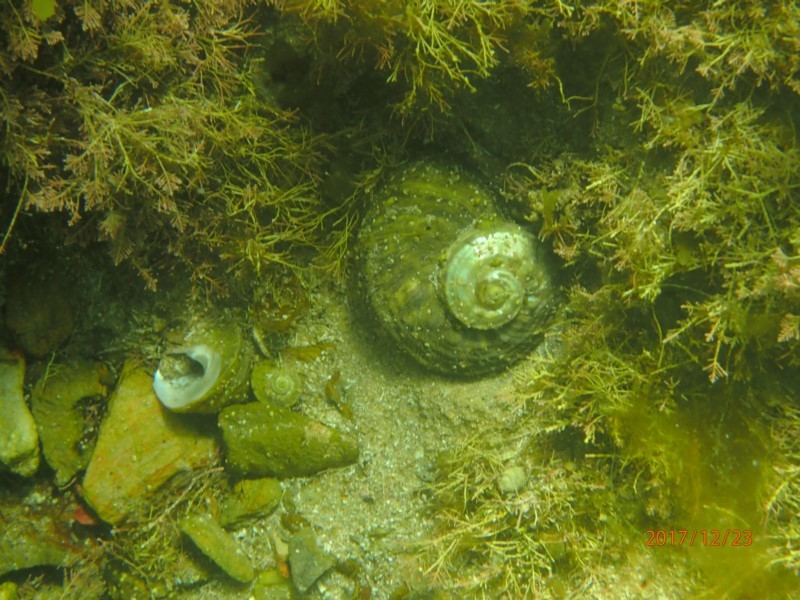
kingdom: Animalia
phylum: Mollusca
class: Gastropoda
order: Trochida
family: Turbinidae
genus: Lunella
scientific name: Lunella torquata
